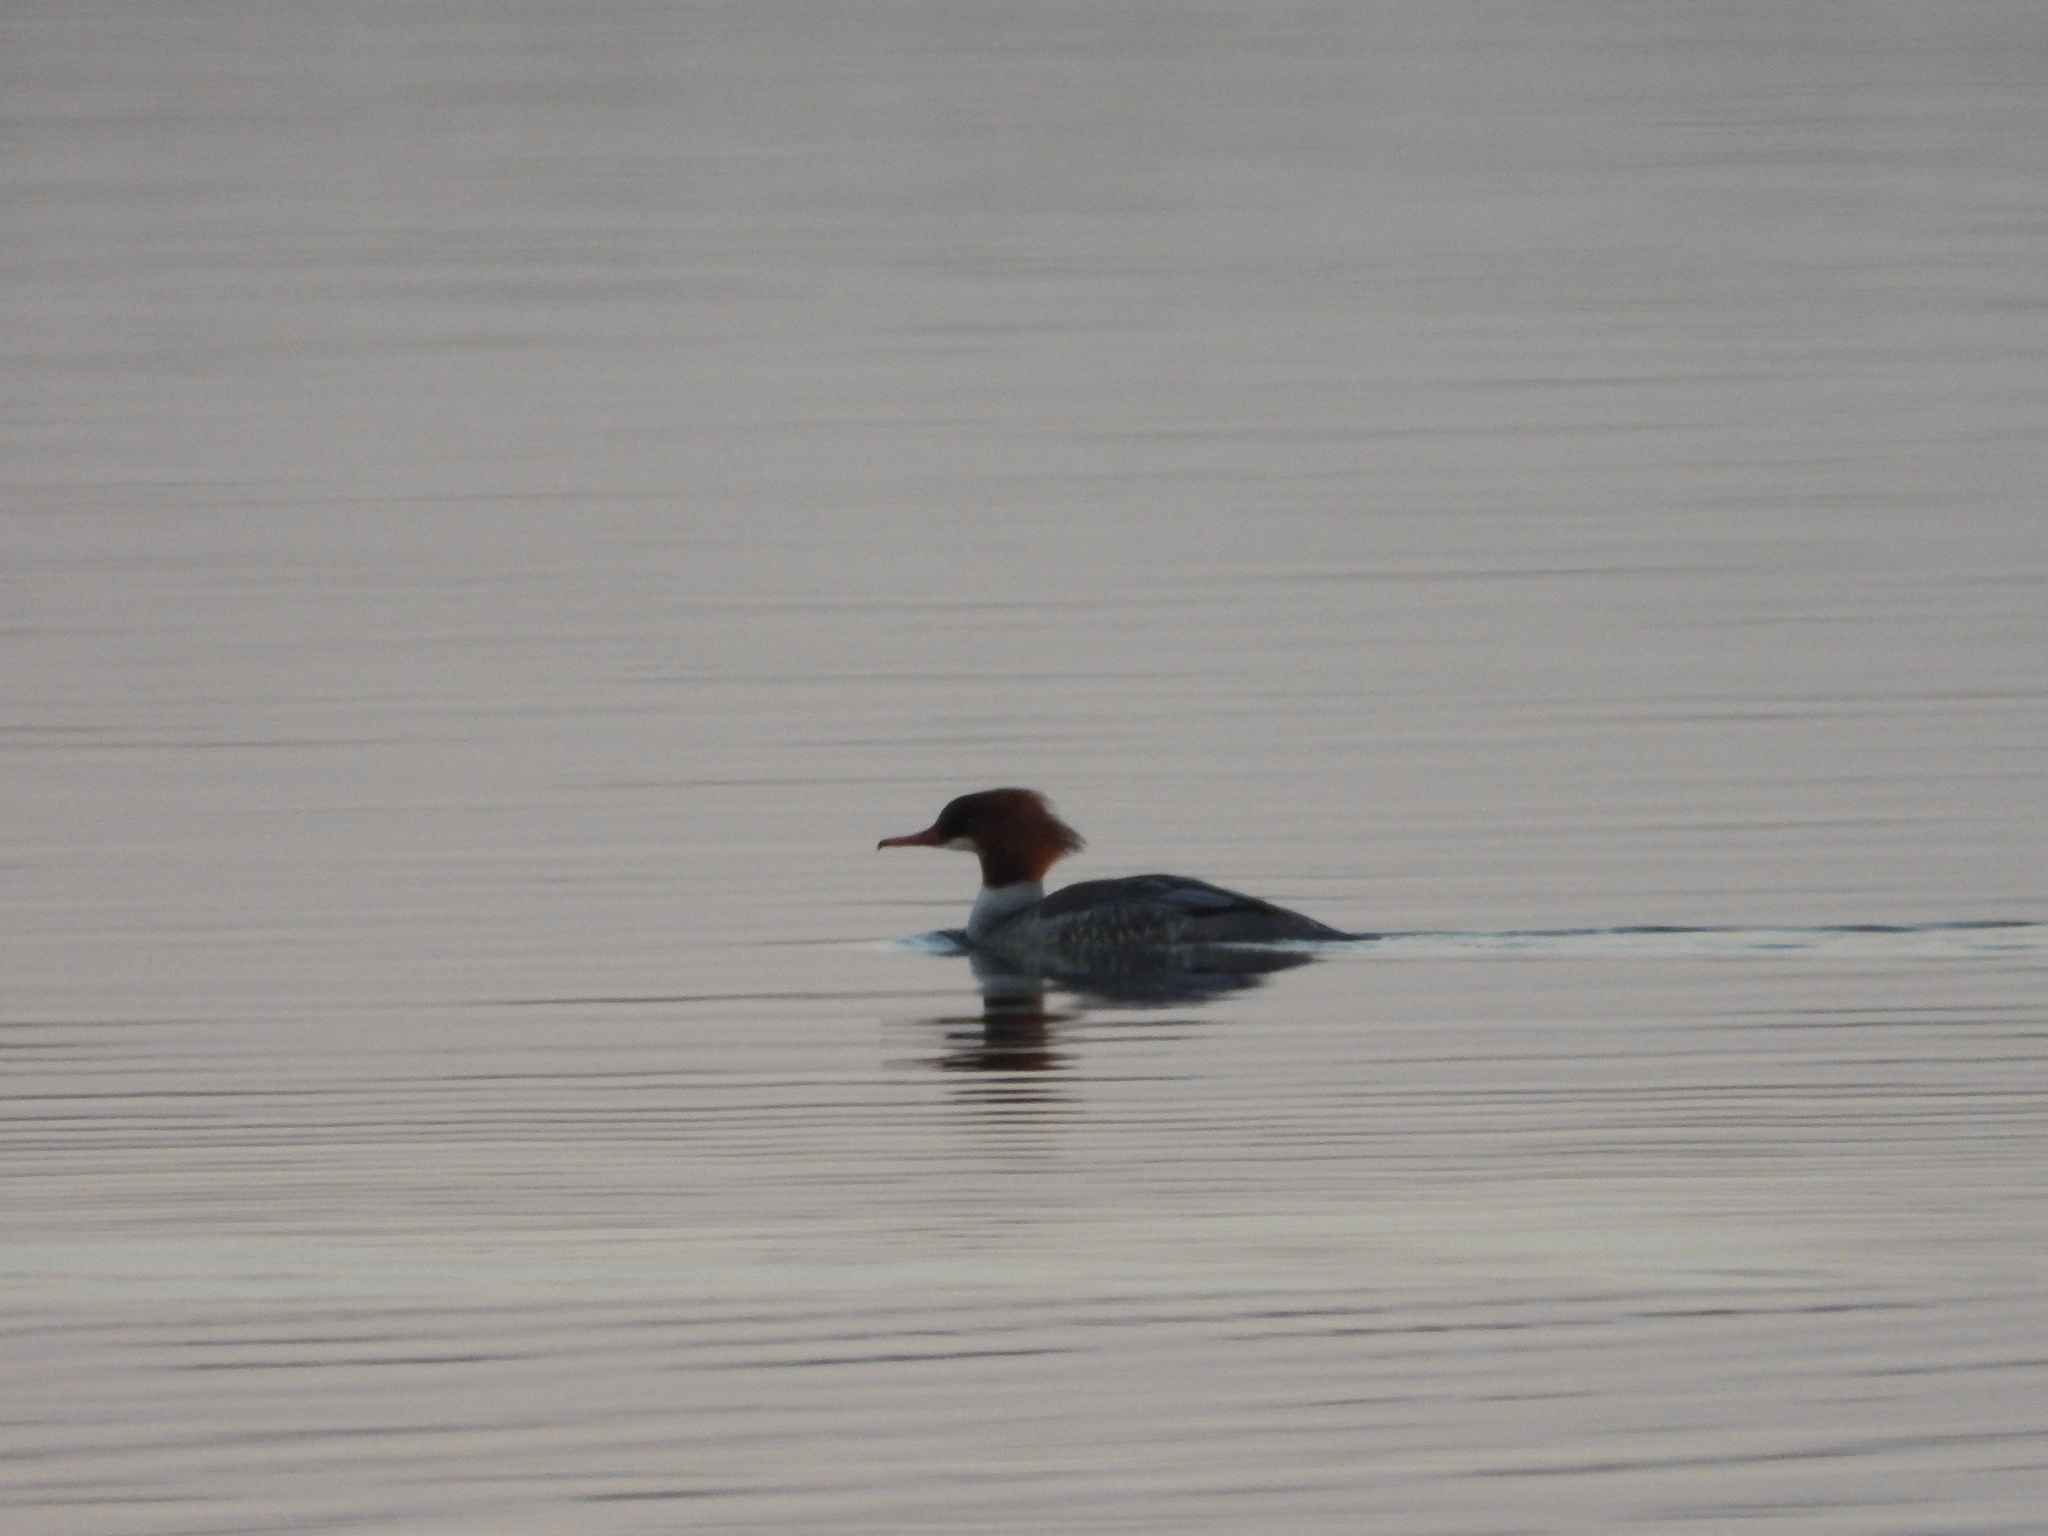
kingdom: Animalia
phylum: Chordata
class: Aves
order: Anseriformes
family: Anatidae
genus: Mergus
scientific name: Mergus merganser
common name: Common merganser
